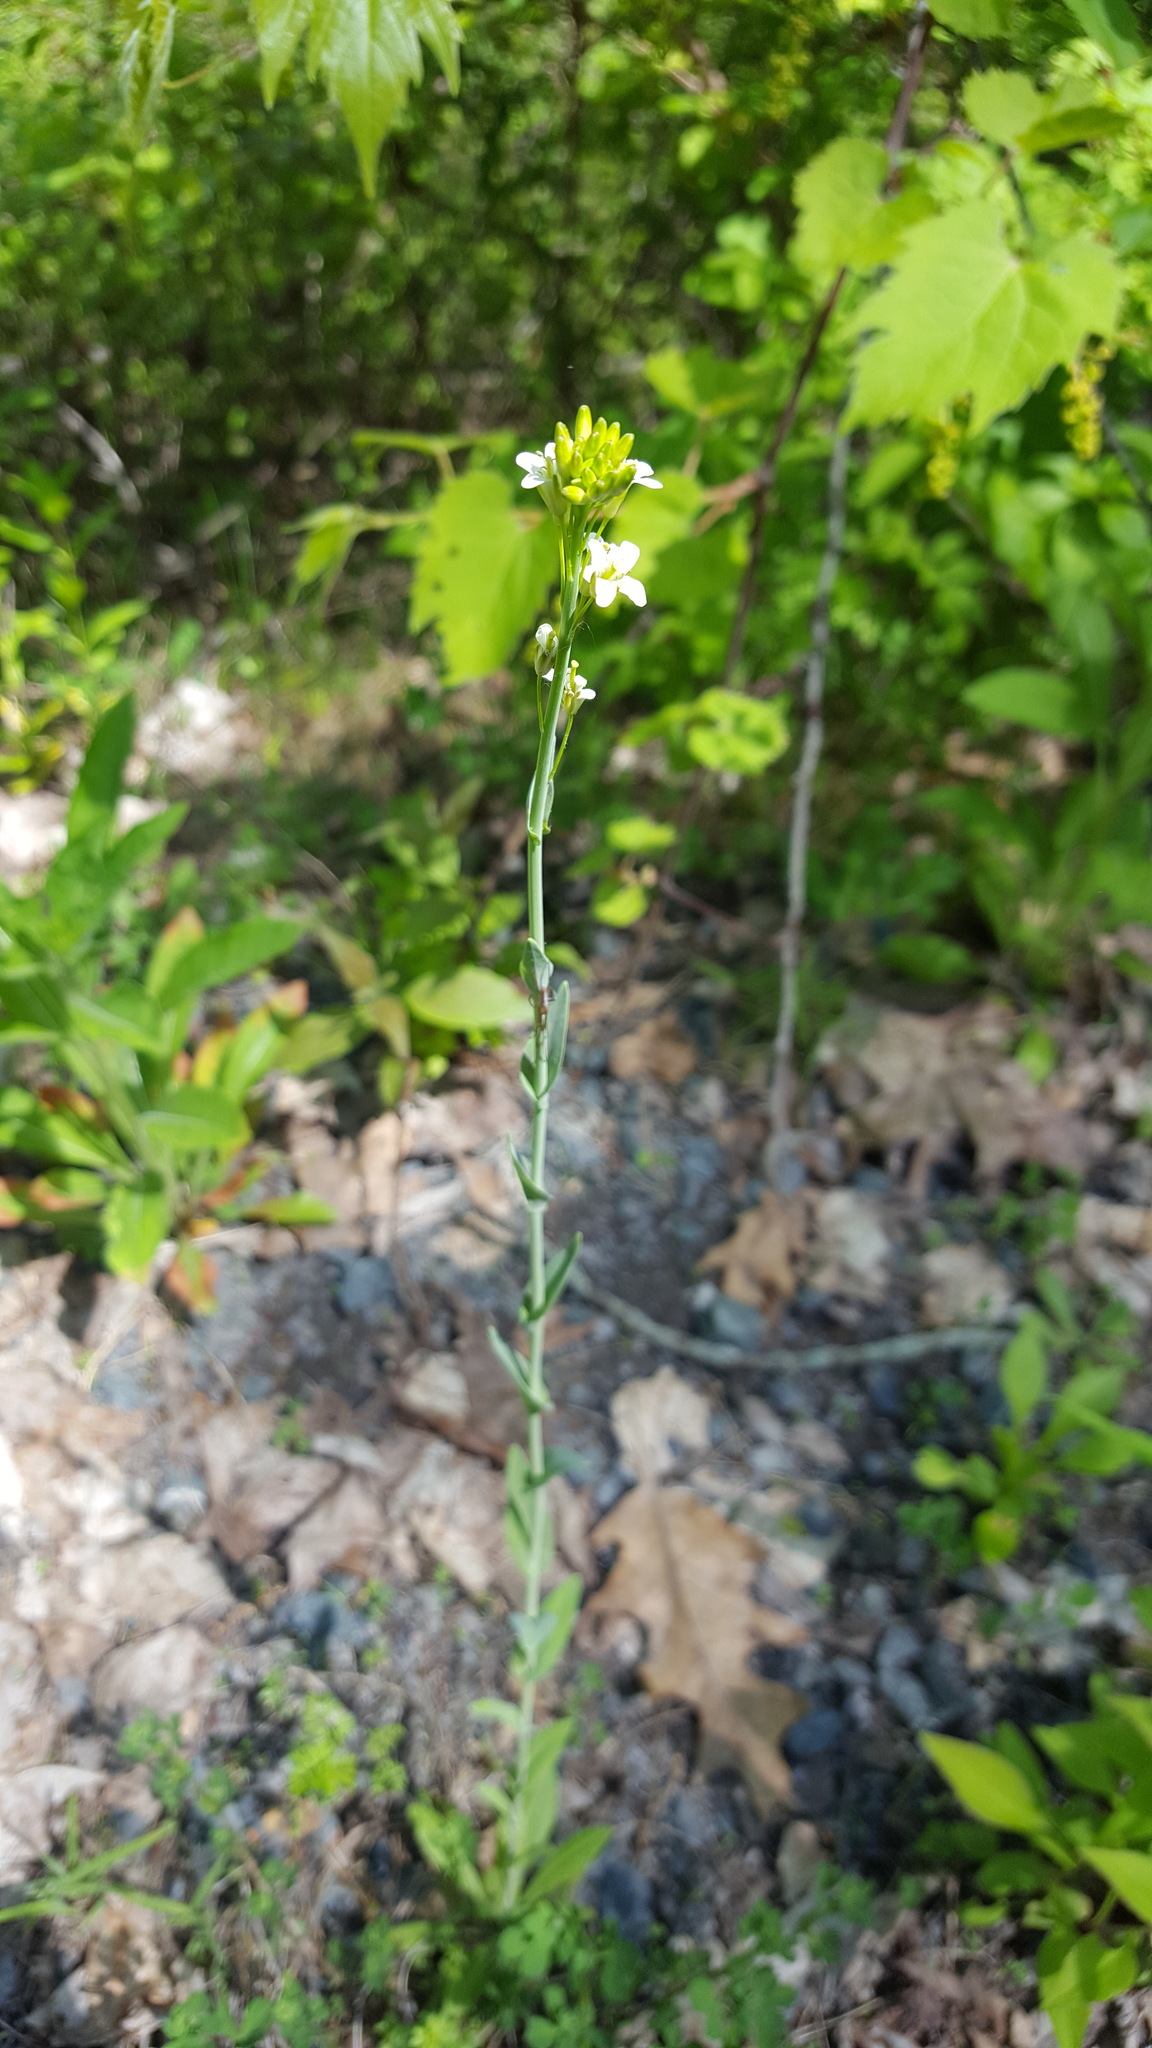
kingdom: Plantae
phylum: Tracheophyta
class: Magnoliopsida
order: Brassicales
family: Brassicaceae
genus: Turritis
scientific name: Turritis glabra
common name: Tower rockcress
